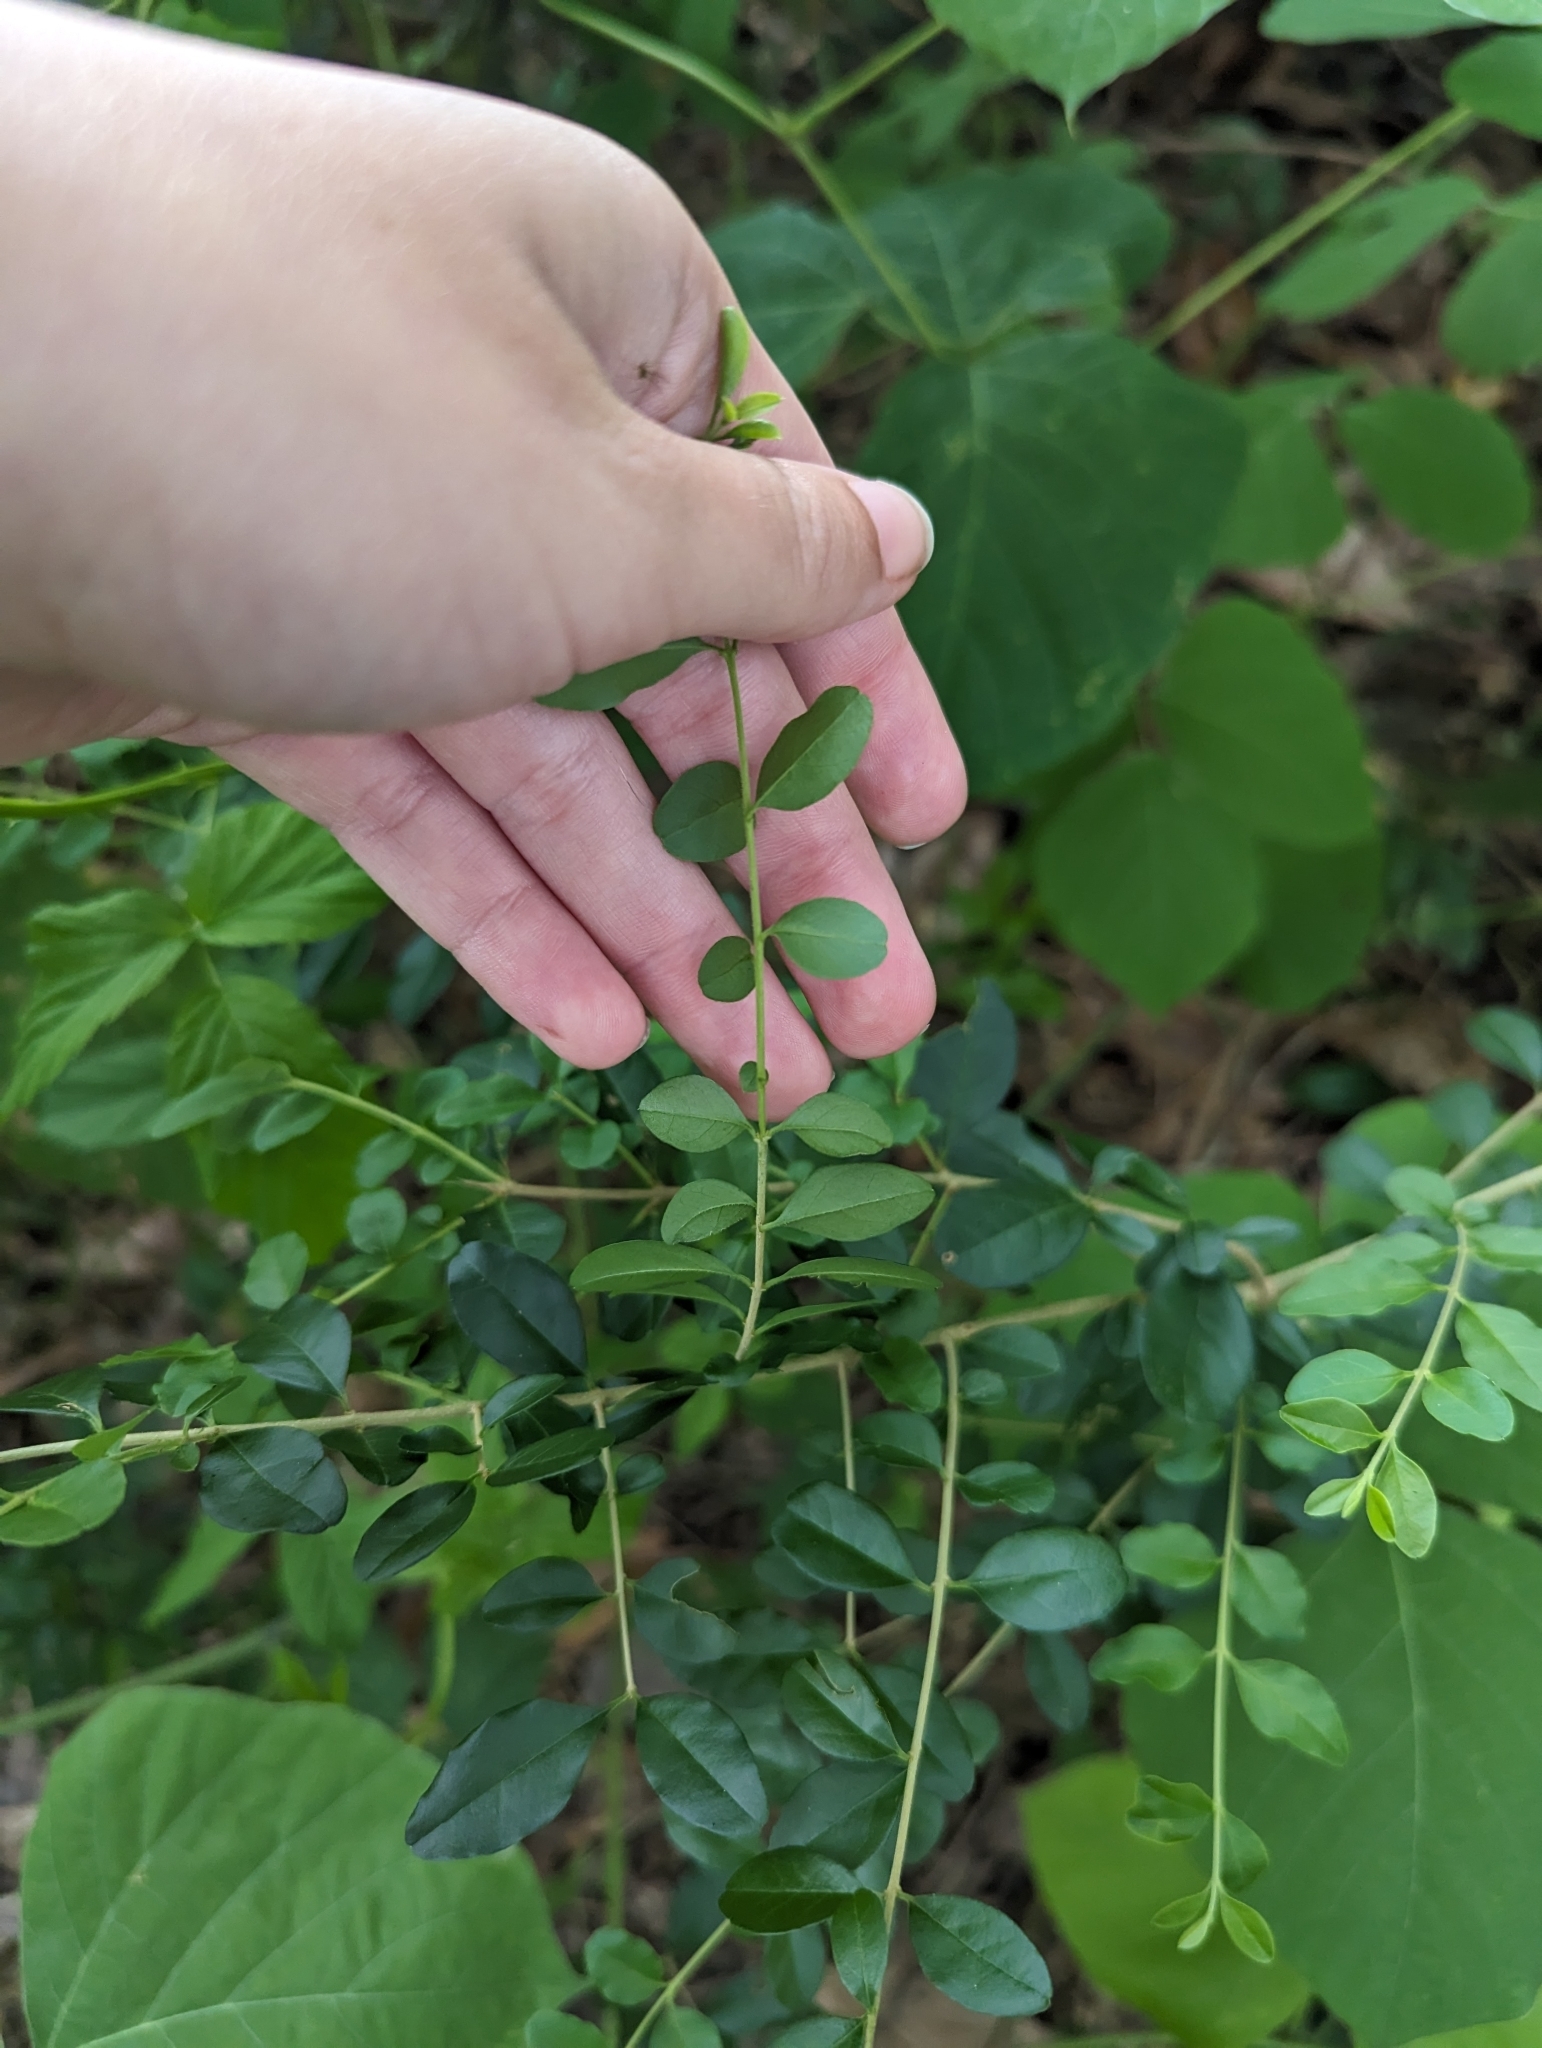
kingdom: Plantae
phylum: Tracheophyta
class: Magnoliopsida
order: Lamiales
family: Oleaceae
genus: Ligustrum
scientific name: Ligustrum sinense
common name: Chinese privet
